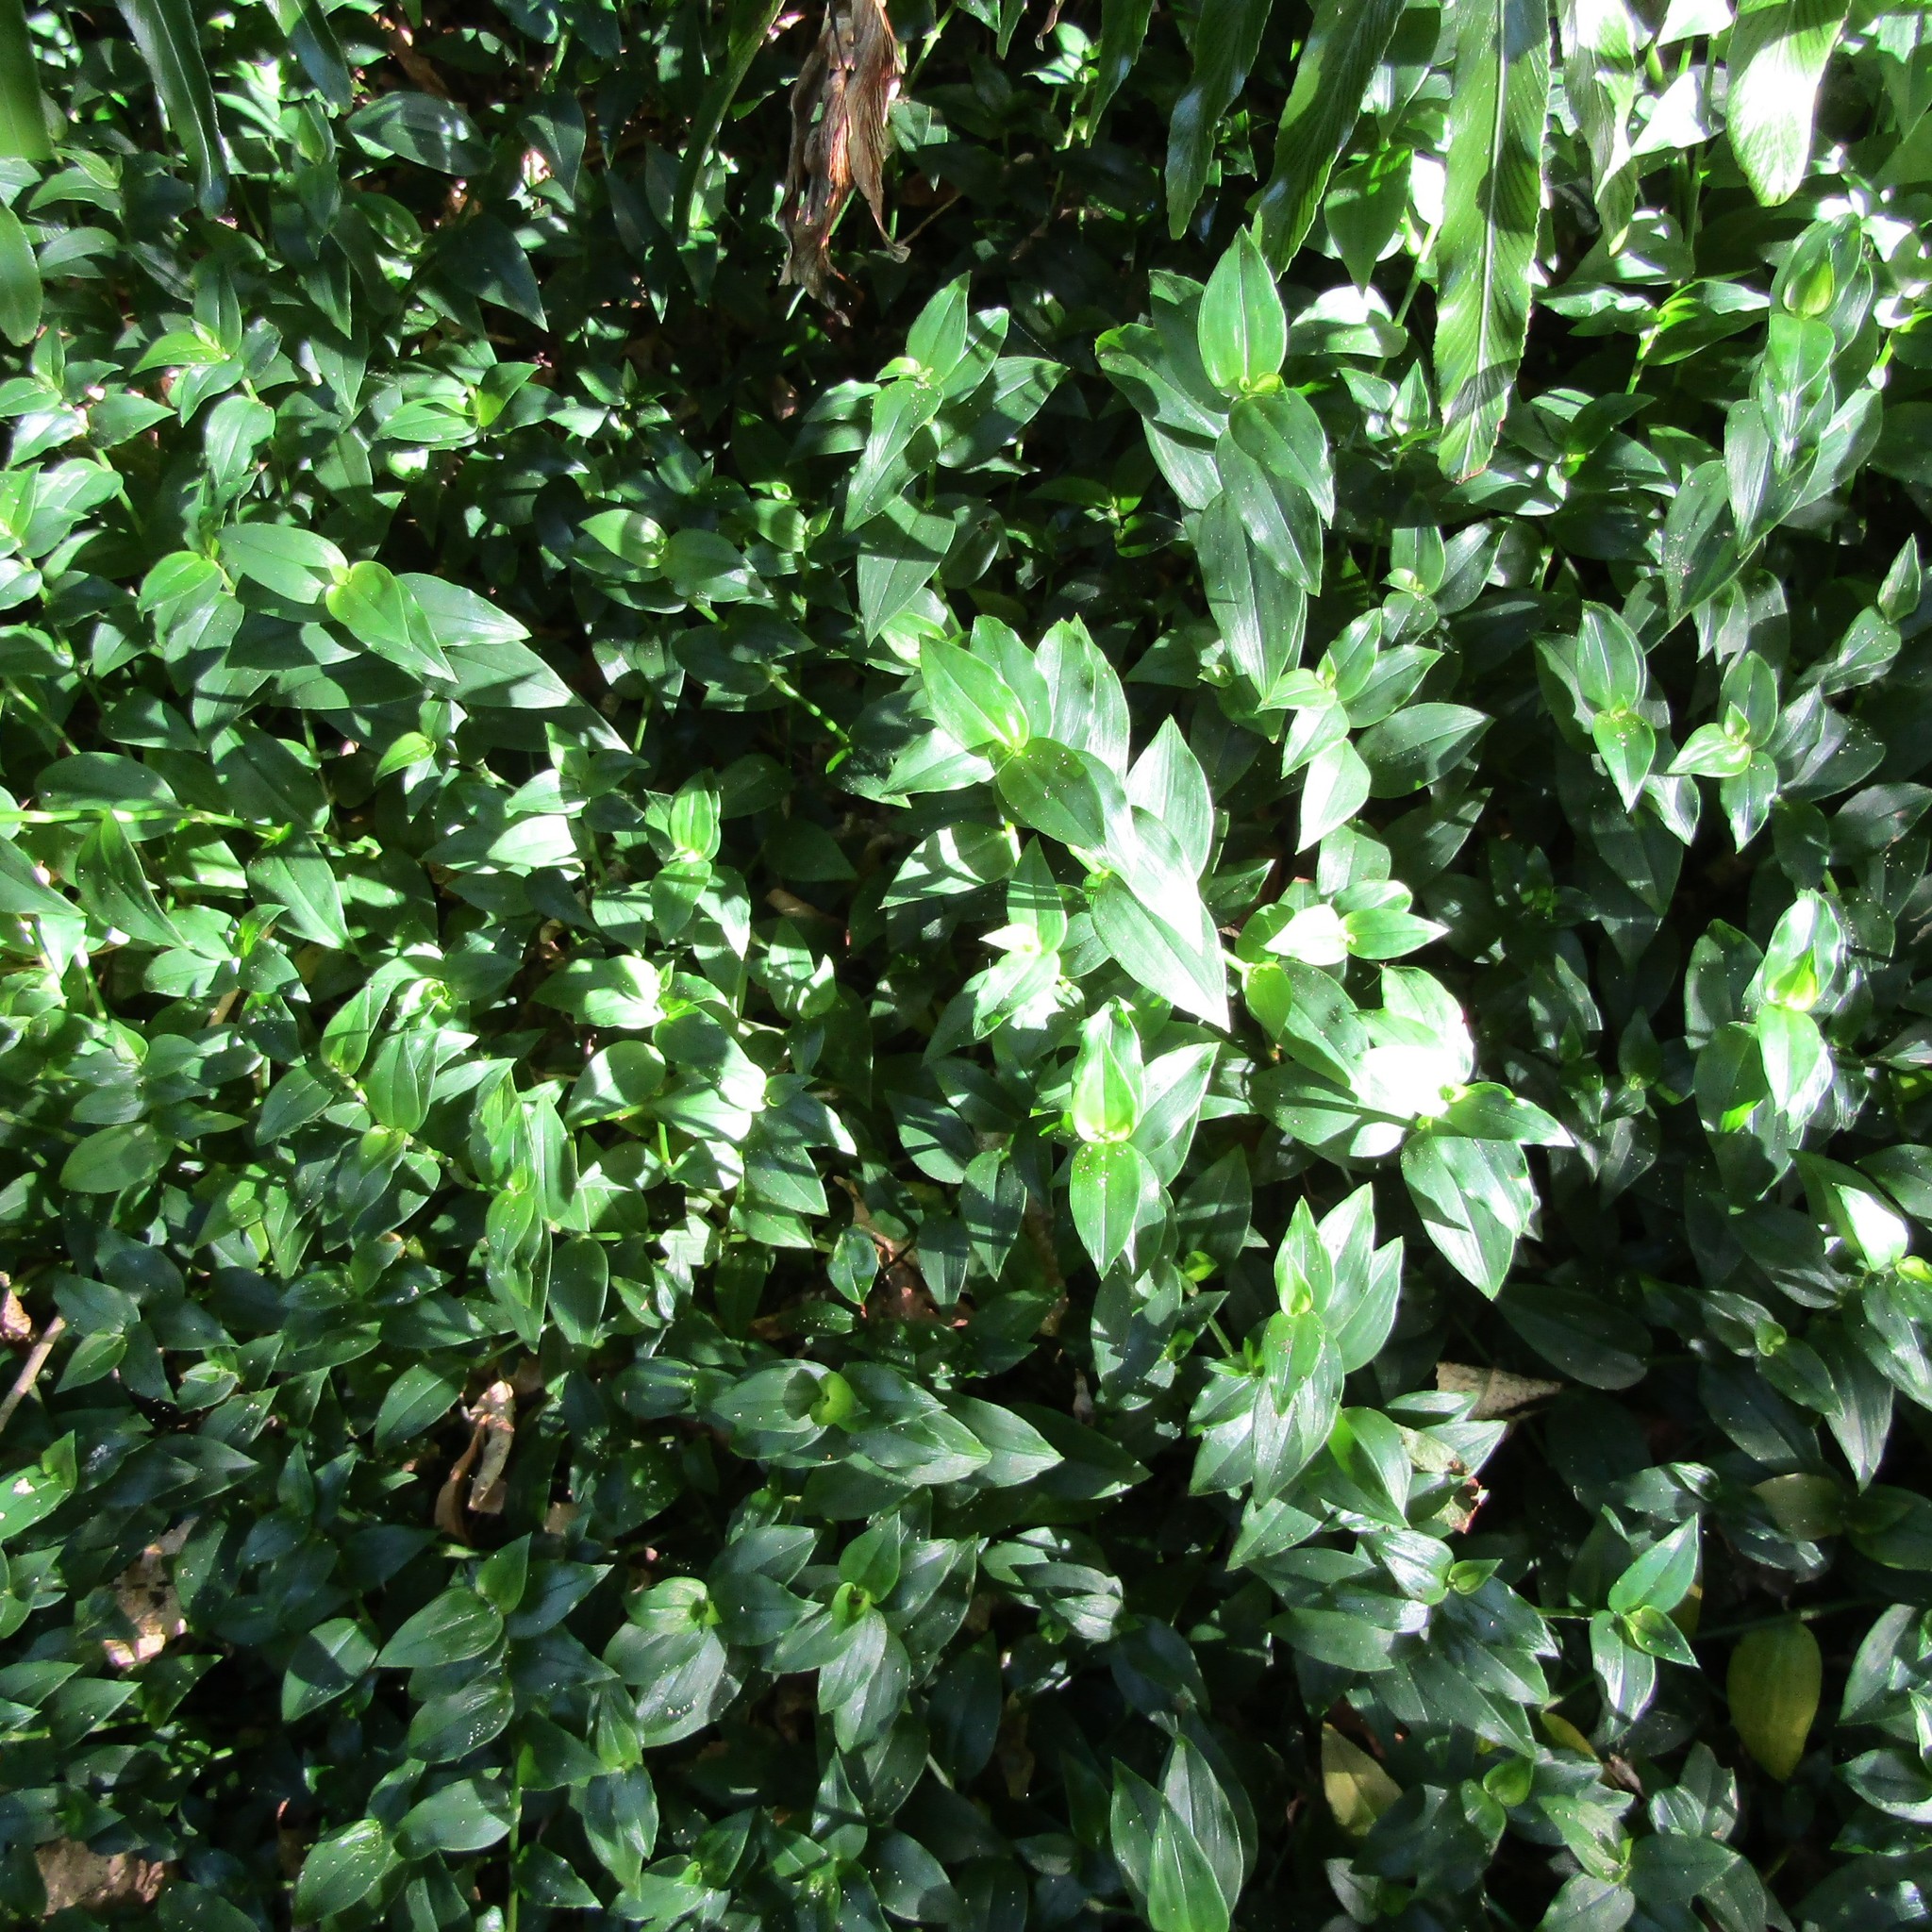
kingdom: Plantae
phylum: Tracheophyta
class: Liliopsida
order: Commelinales
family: Commelinaceae
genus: Tradescantia
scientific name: Tradescantia fluminensis
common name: Wandering-jew
